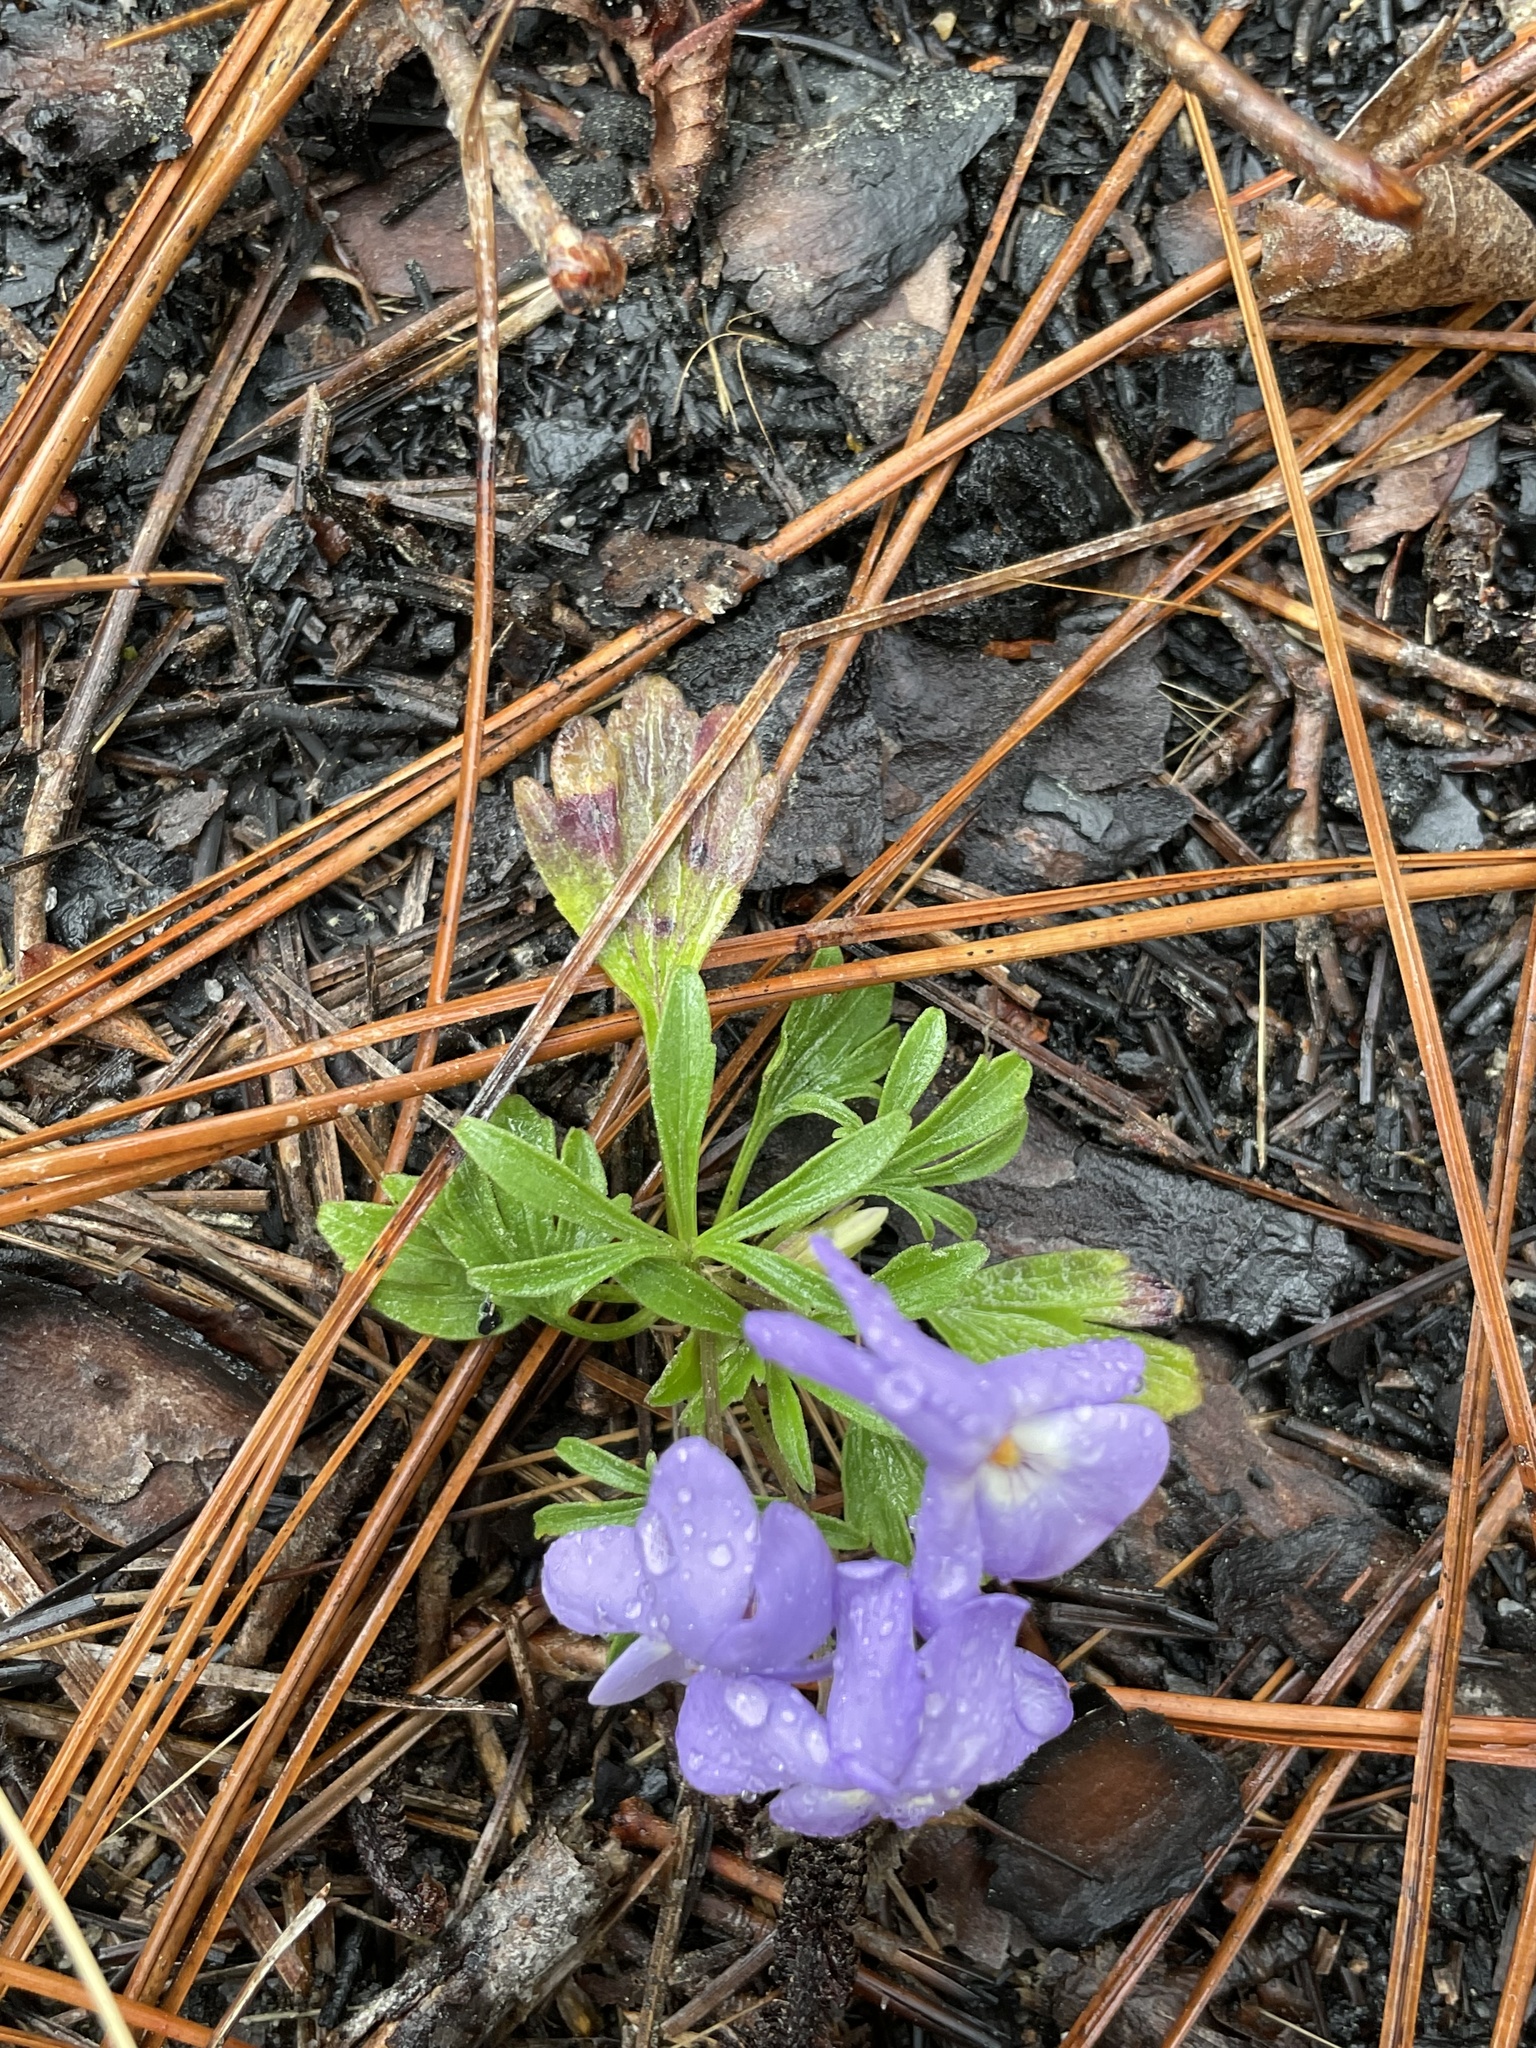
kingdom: Plantae
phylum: Tracheophyta
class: Magnoliopsida
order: Malpighiales
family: Violaceae
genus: Viola
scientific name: Viola pedata
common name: Pansy violet
